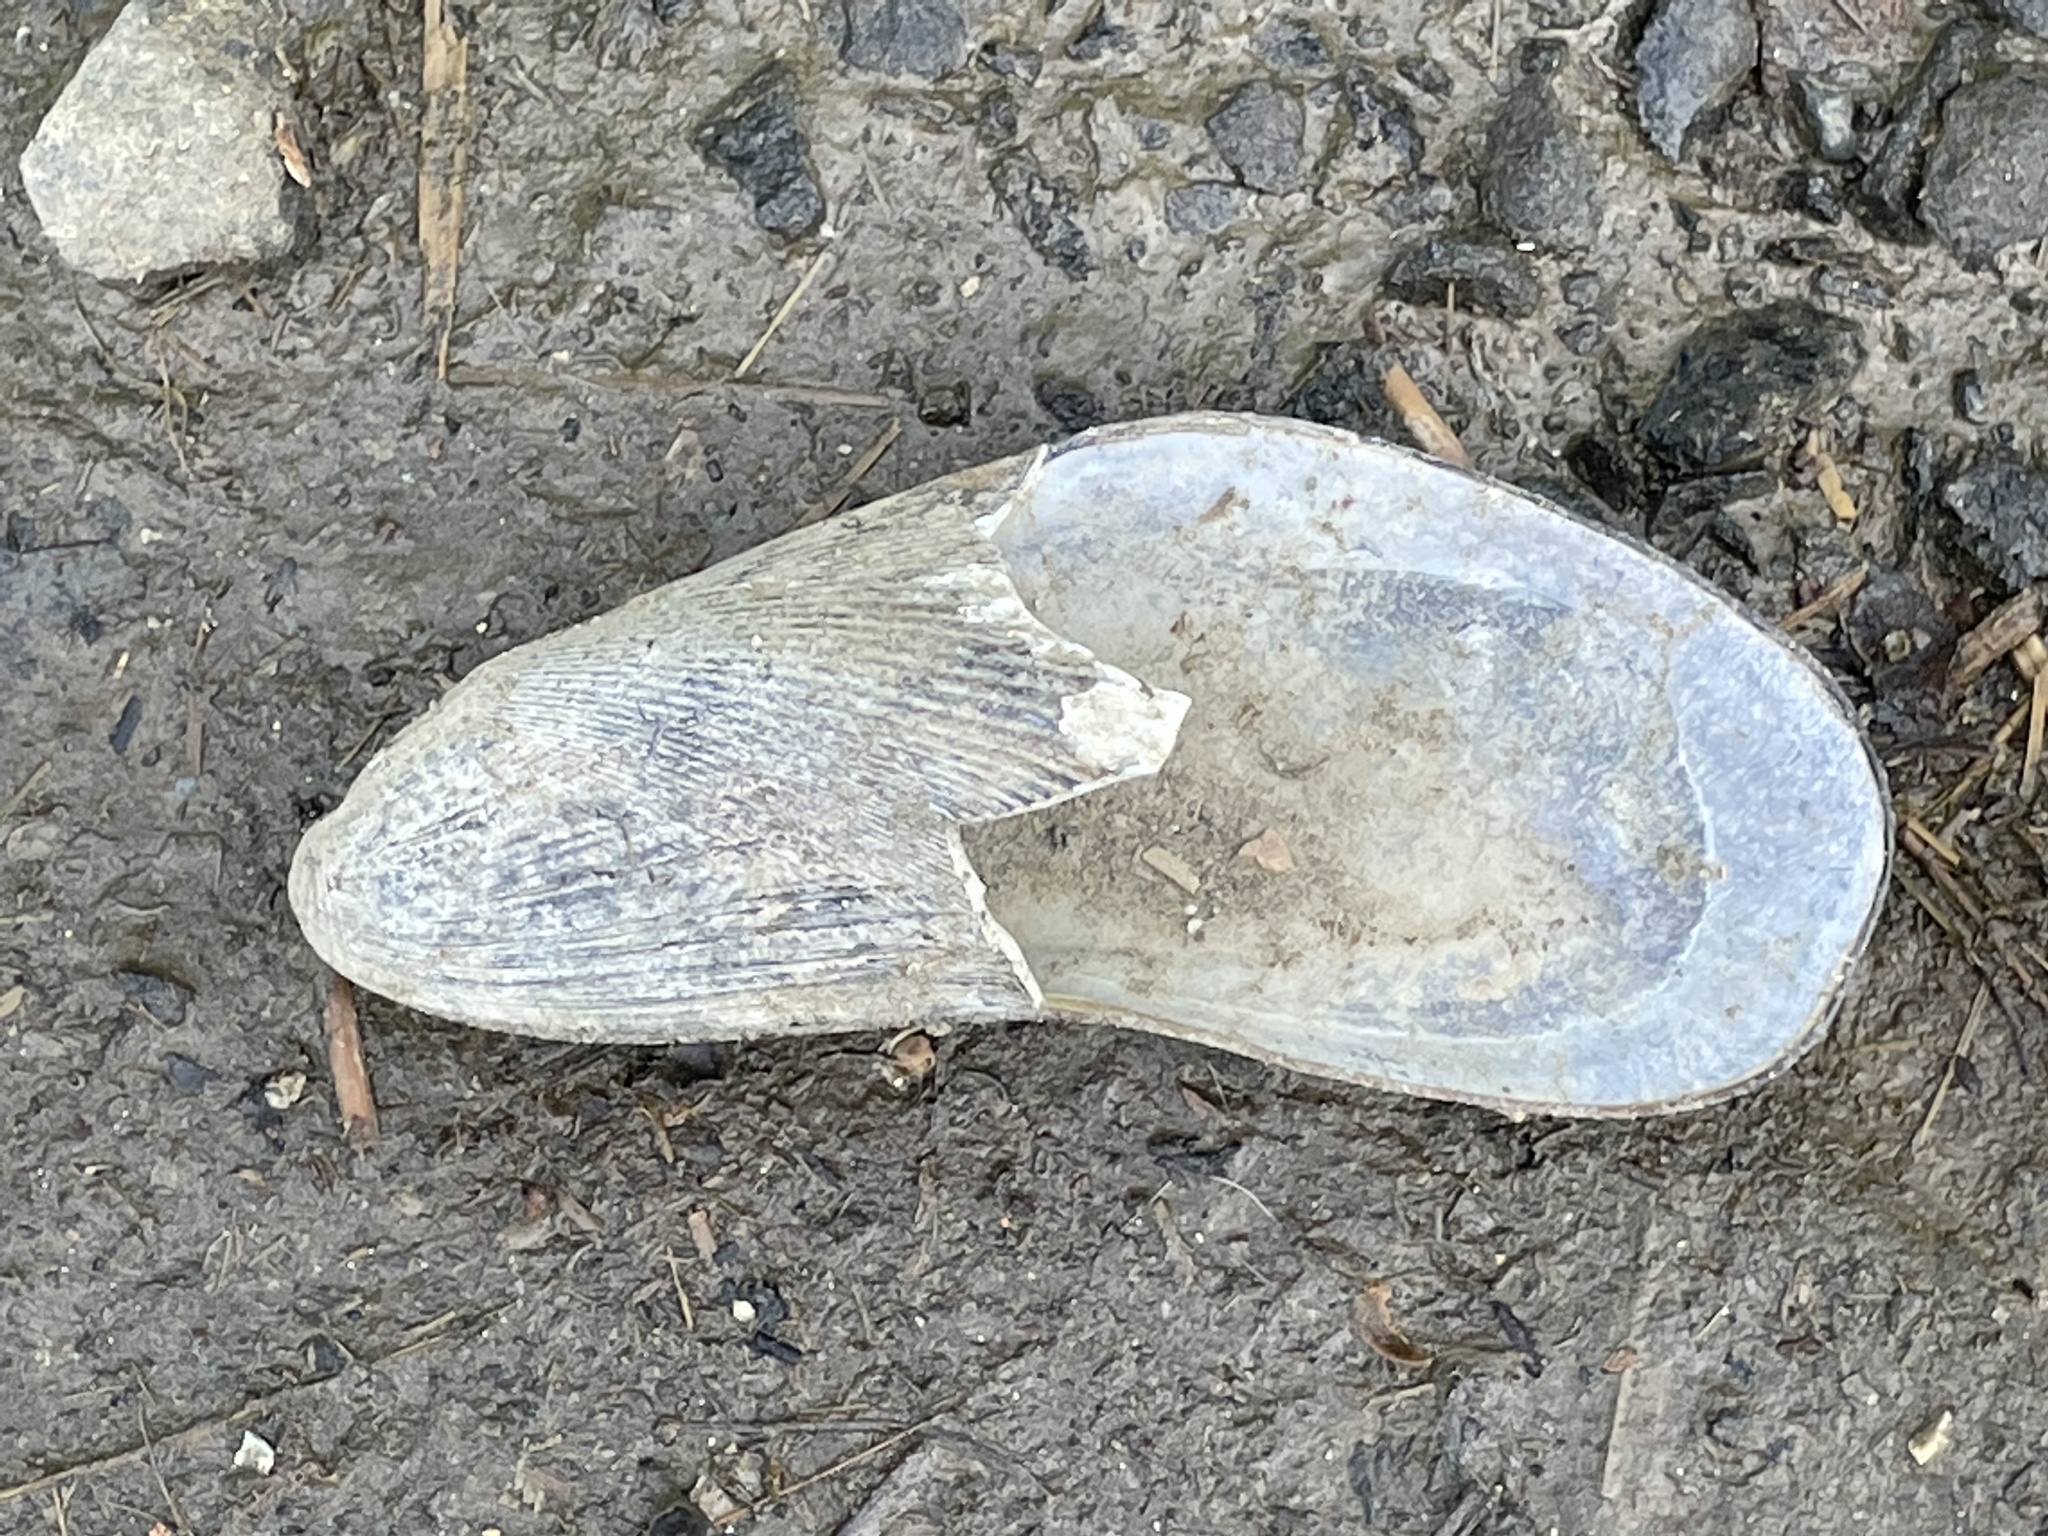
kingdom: Animalia
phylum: Mollusca
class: Bivalvia
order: Mytilida
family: Mytilidae
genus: Geukensia
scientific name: Geukensia demissa
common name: Ribbed mussel
